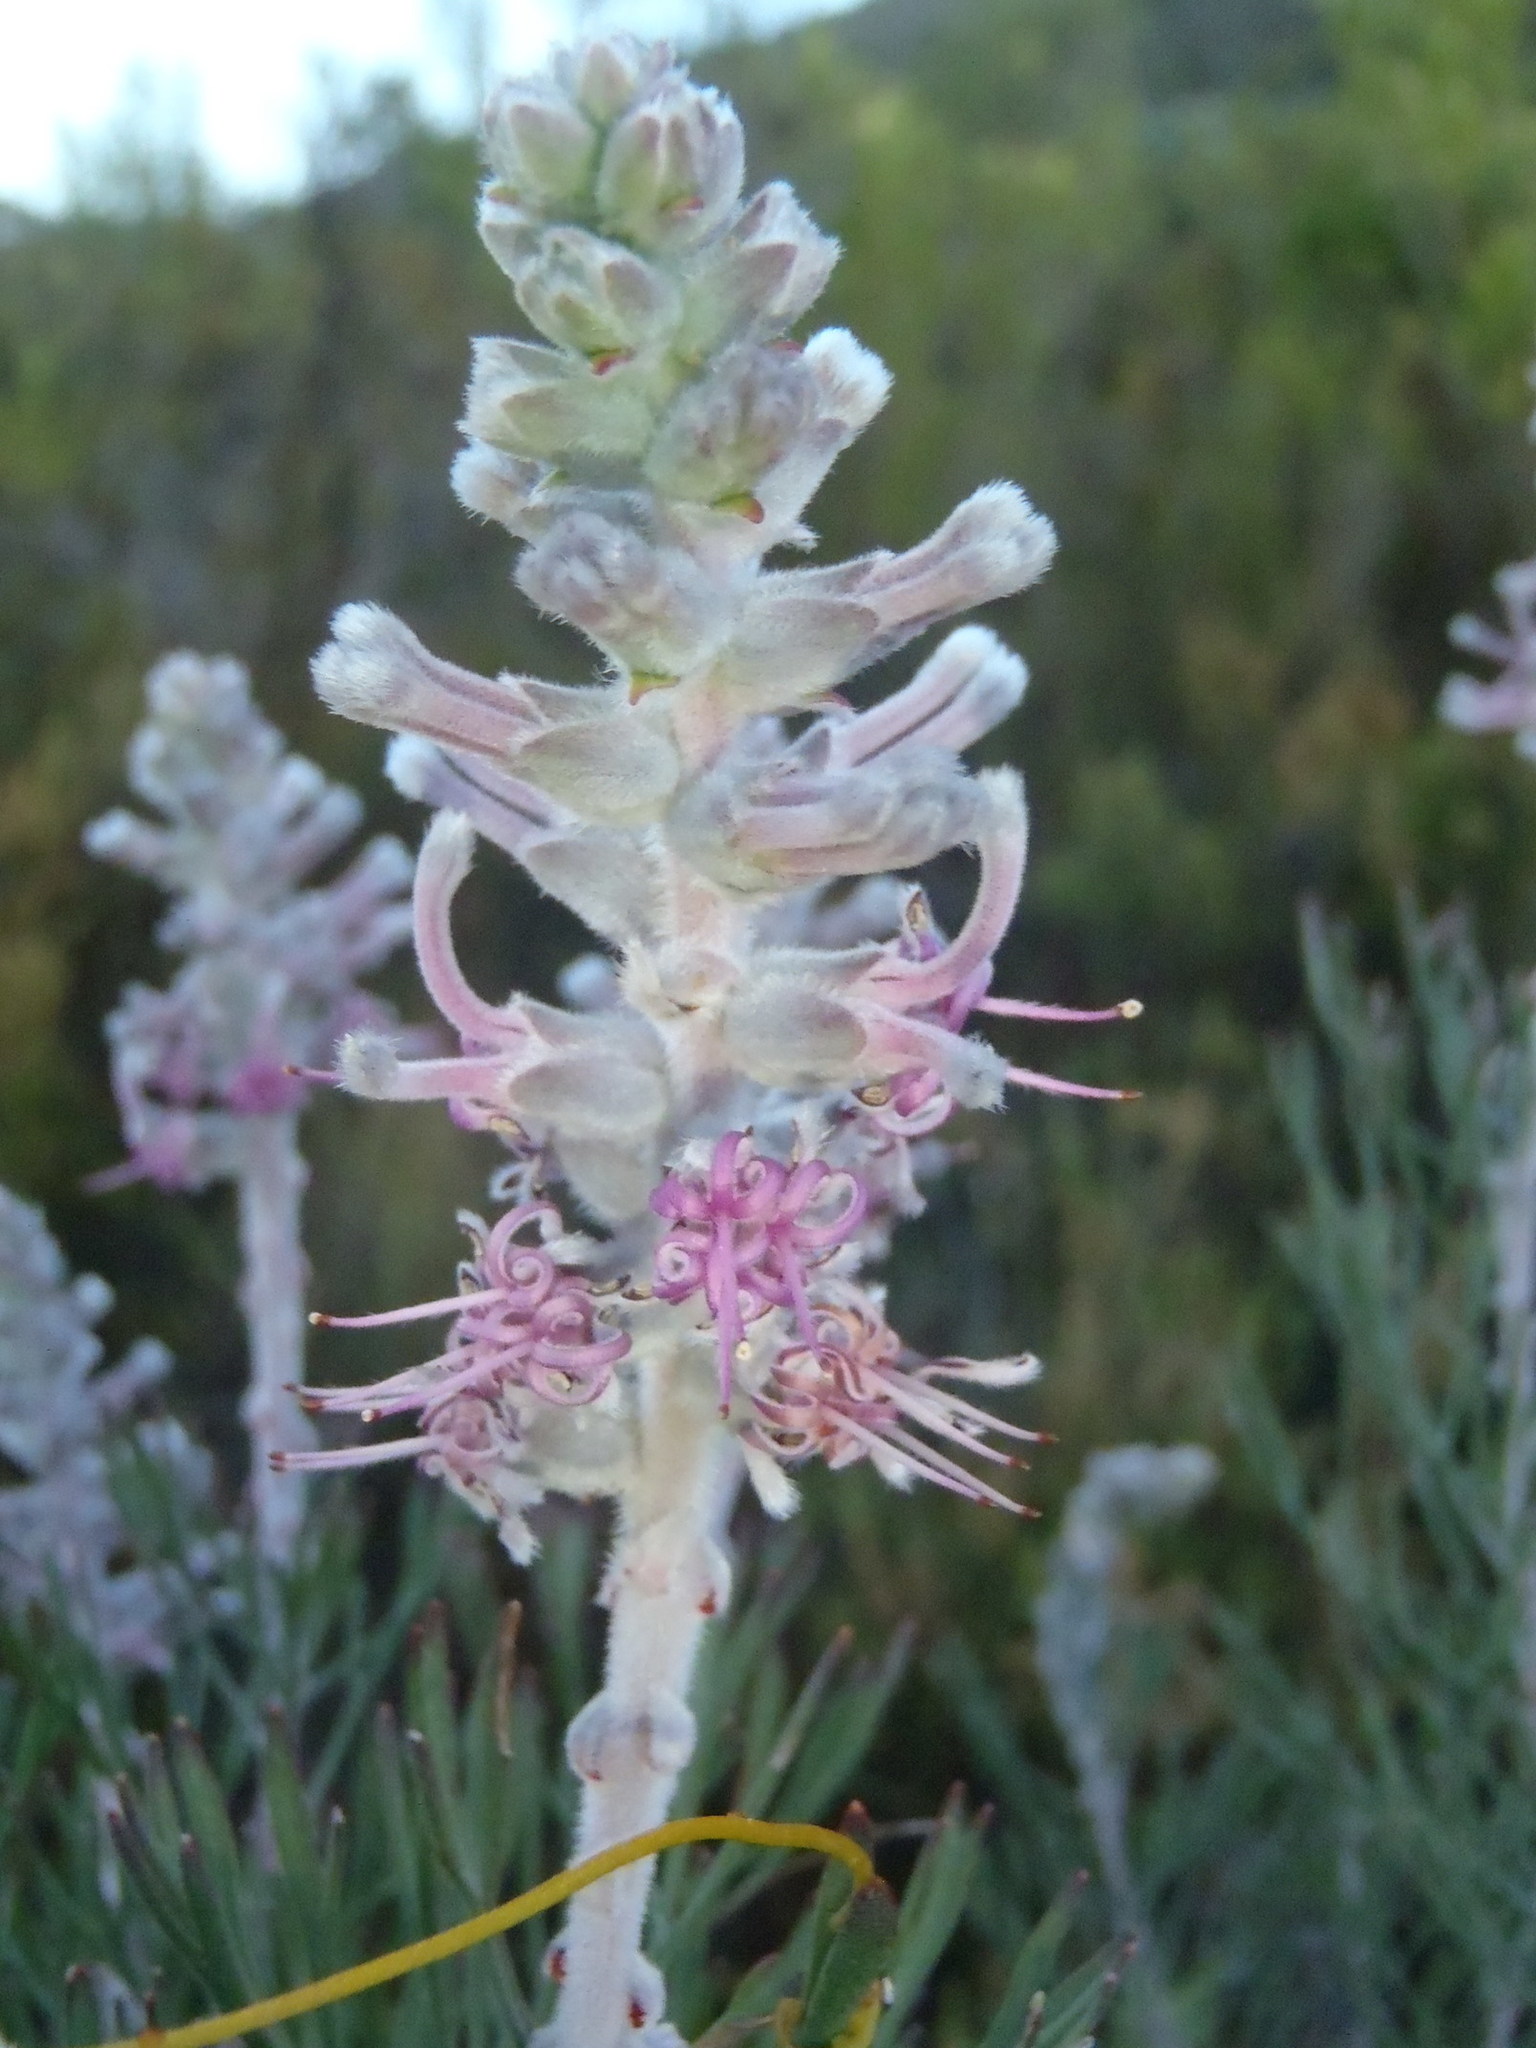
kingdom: Plantae
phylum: Tracheophyta
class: Magnoliopsida
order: Proteales
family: Proteaceae
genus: Paranomus
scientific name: Paranomus dispersus
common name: Long-head sceptre
